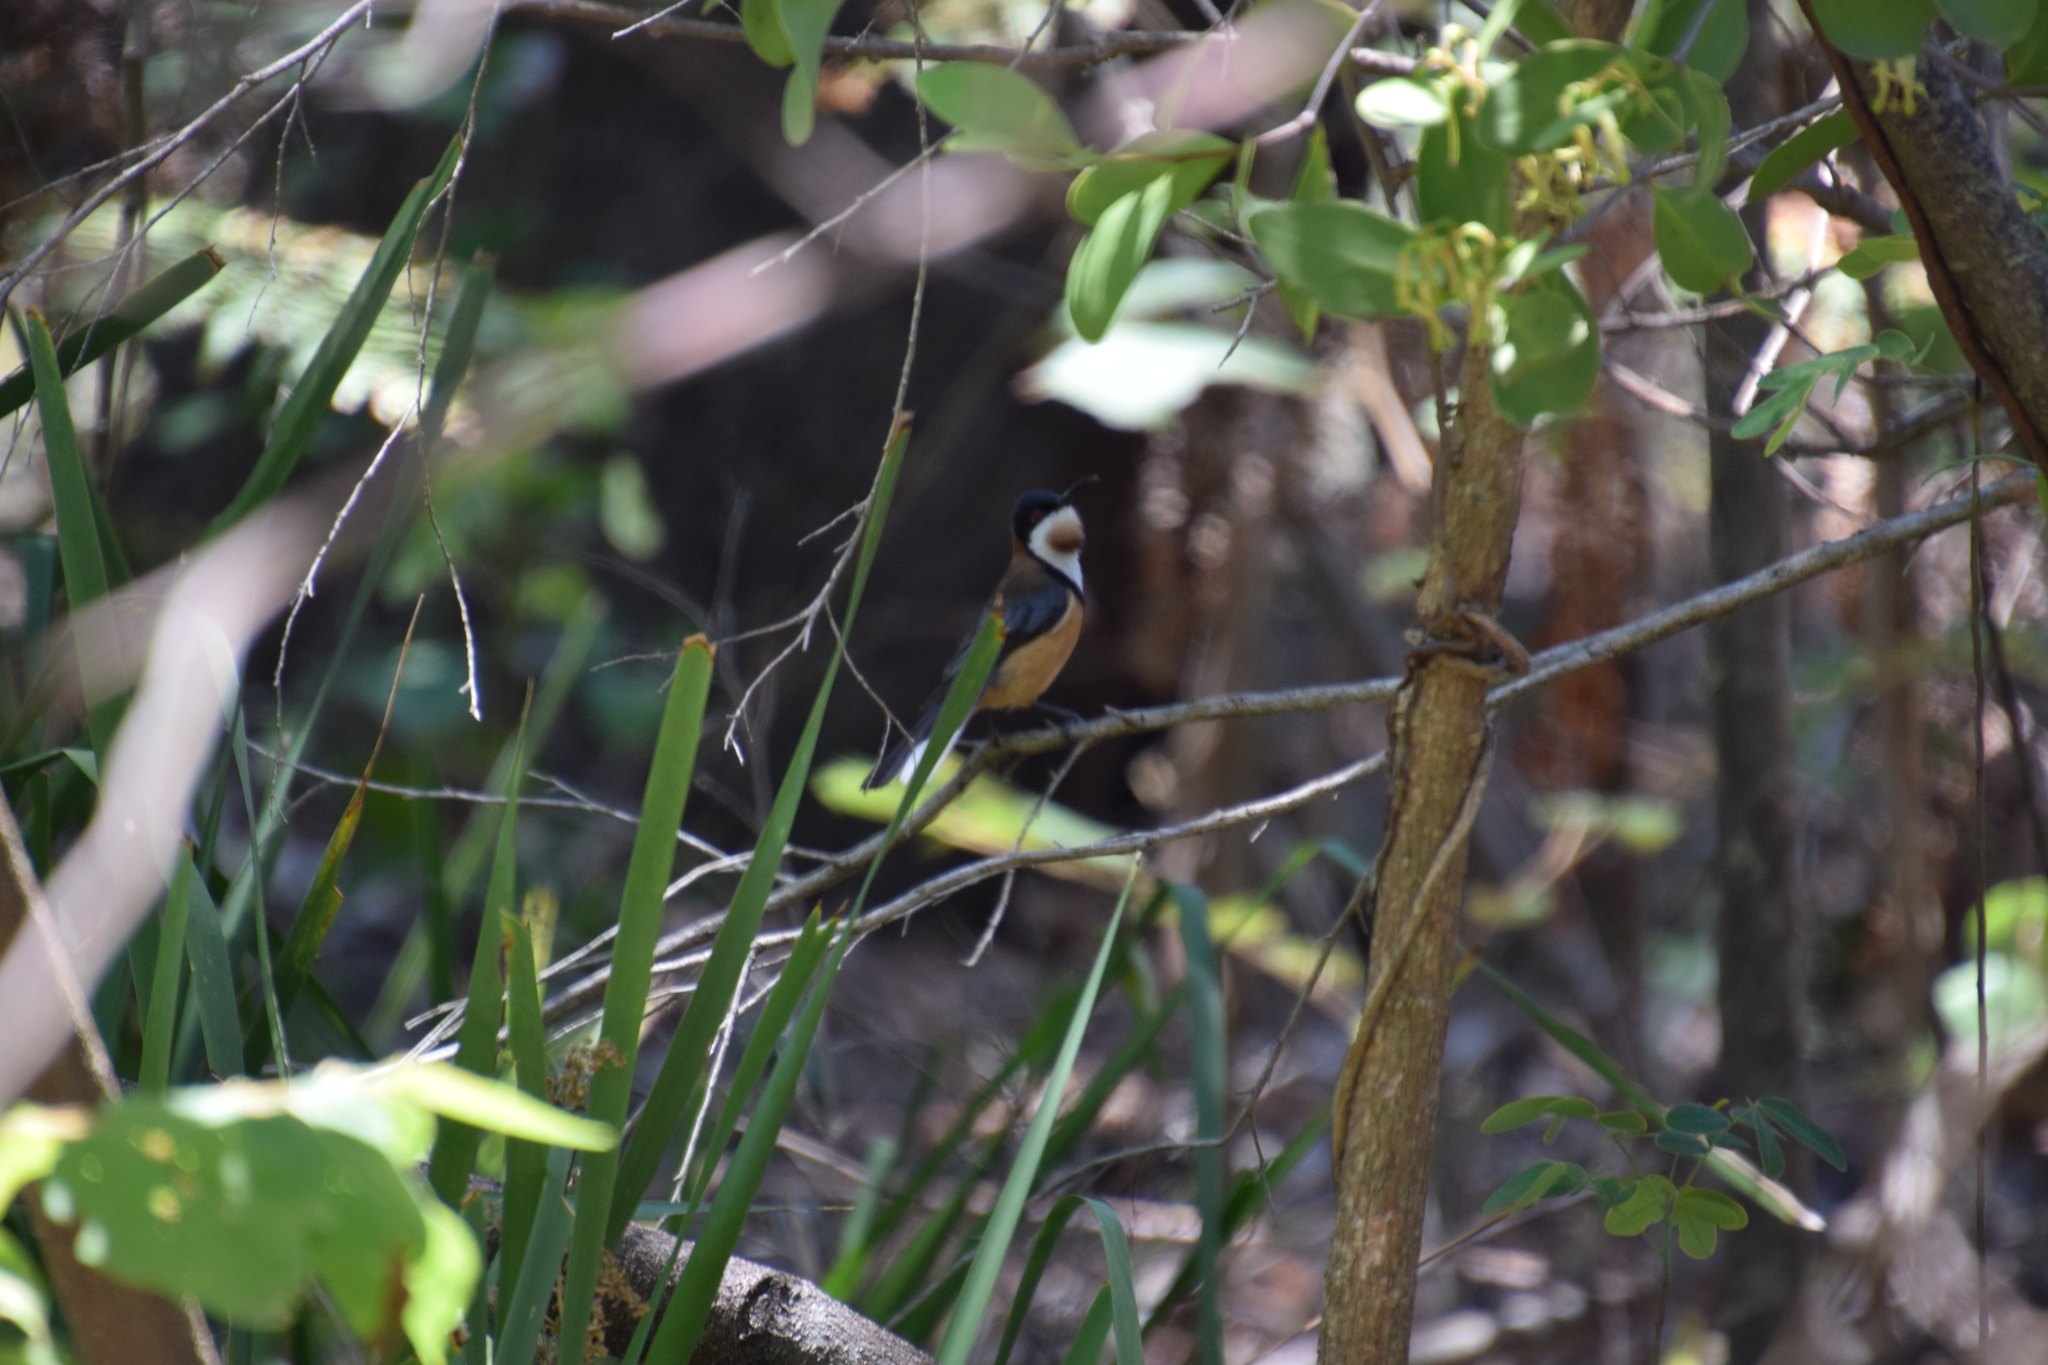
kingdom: Animalia
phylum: Chordata
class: Aves
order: Passeriformes
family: Meliphagidae
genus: Acanthorhynchus
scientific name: Acanthorhynchus tenuirostris
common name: Eastern spinebill
